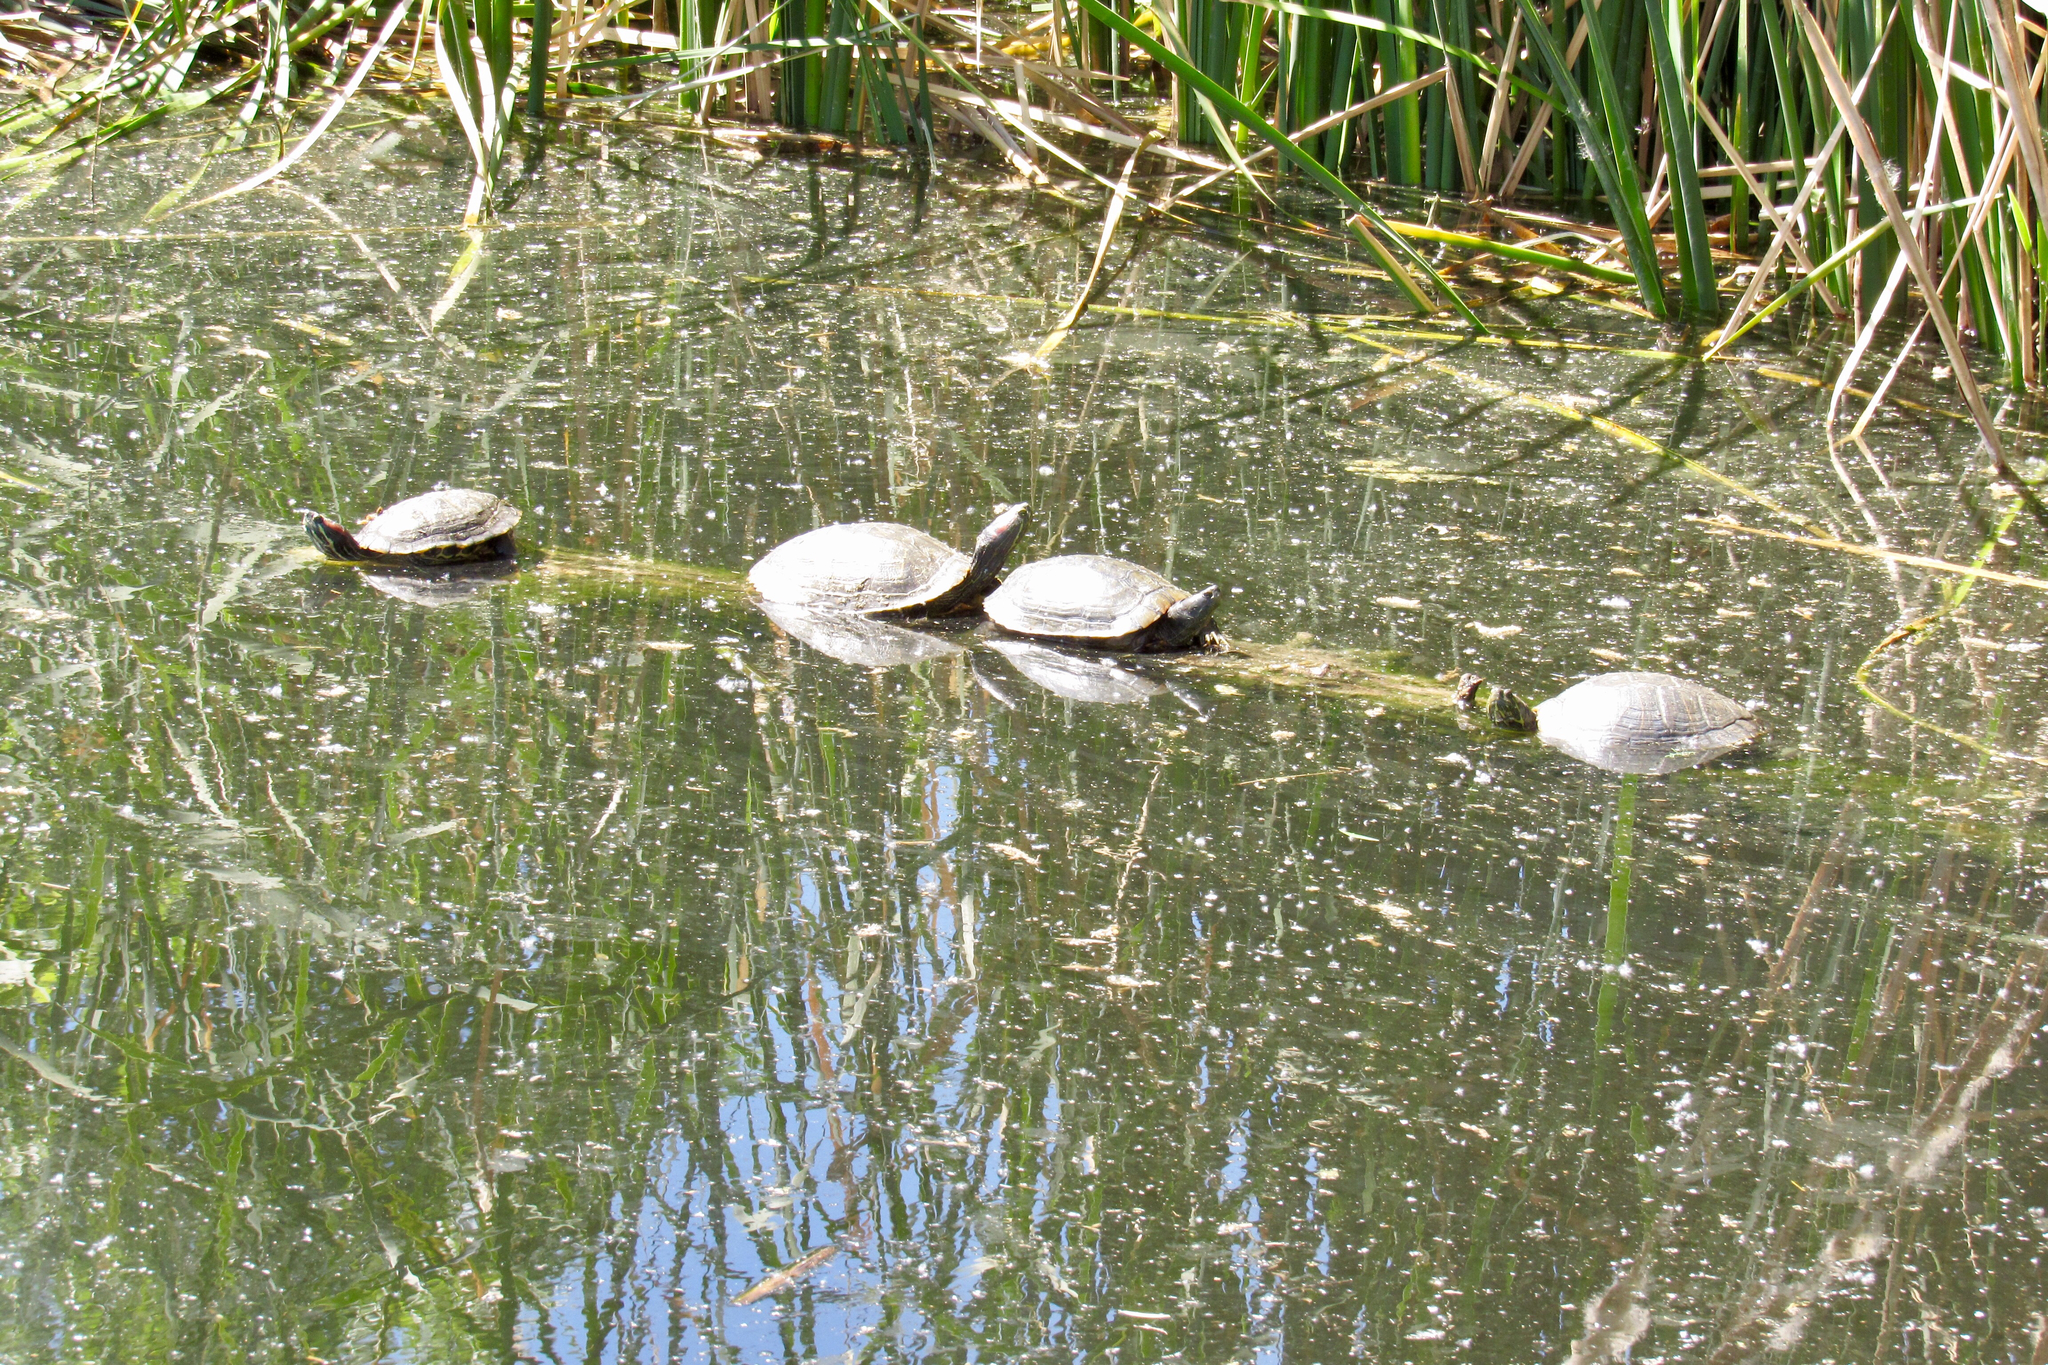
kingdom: Animalia
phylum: Chordata
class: Testudines
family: Emydidae
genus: Trachemys
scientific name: Trachemys scripta
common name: Slider
